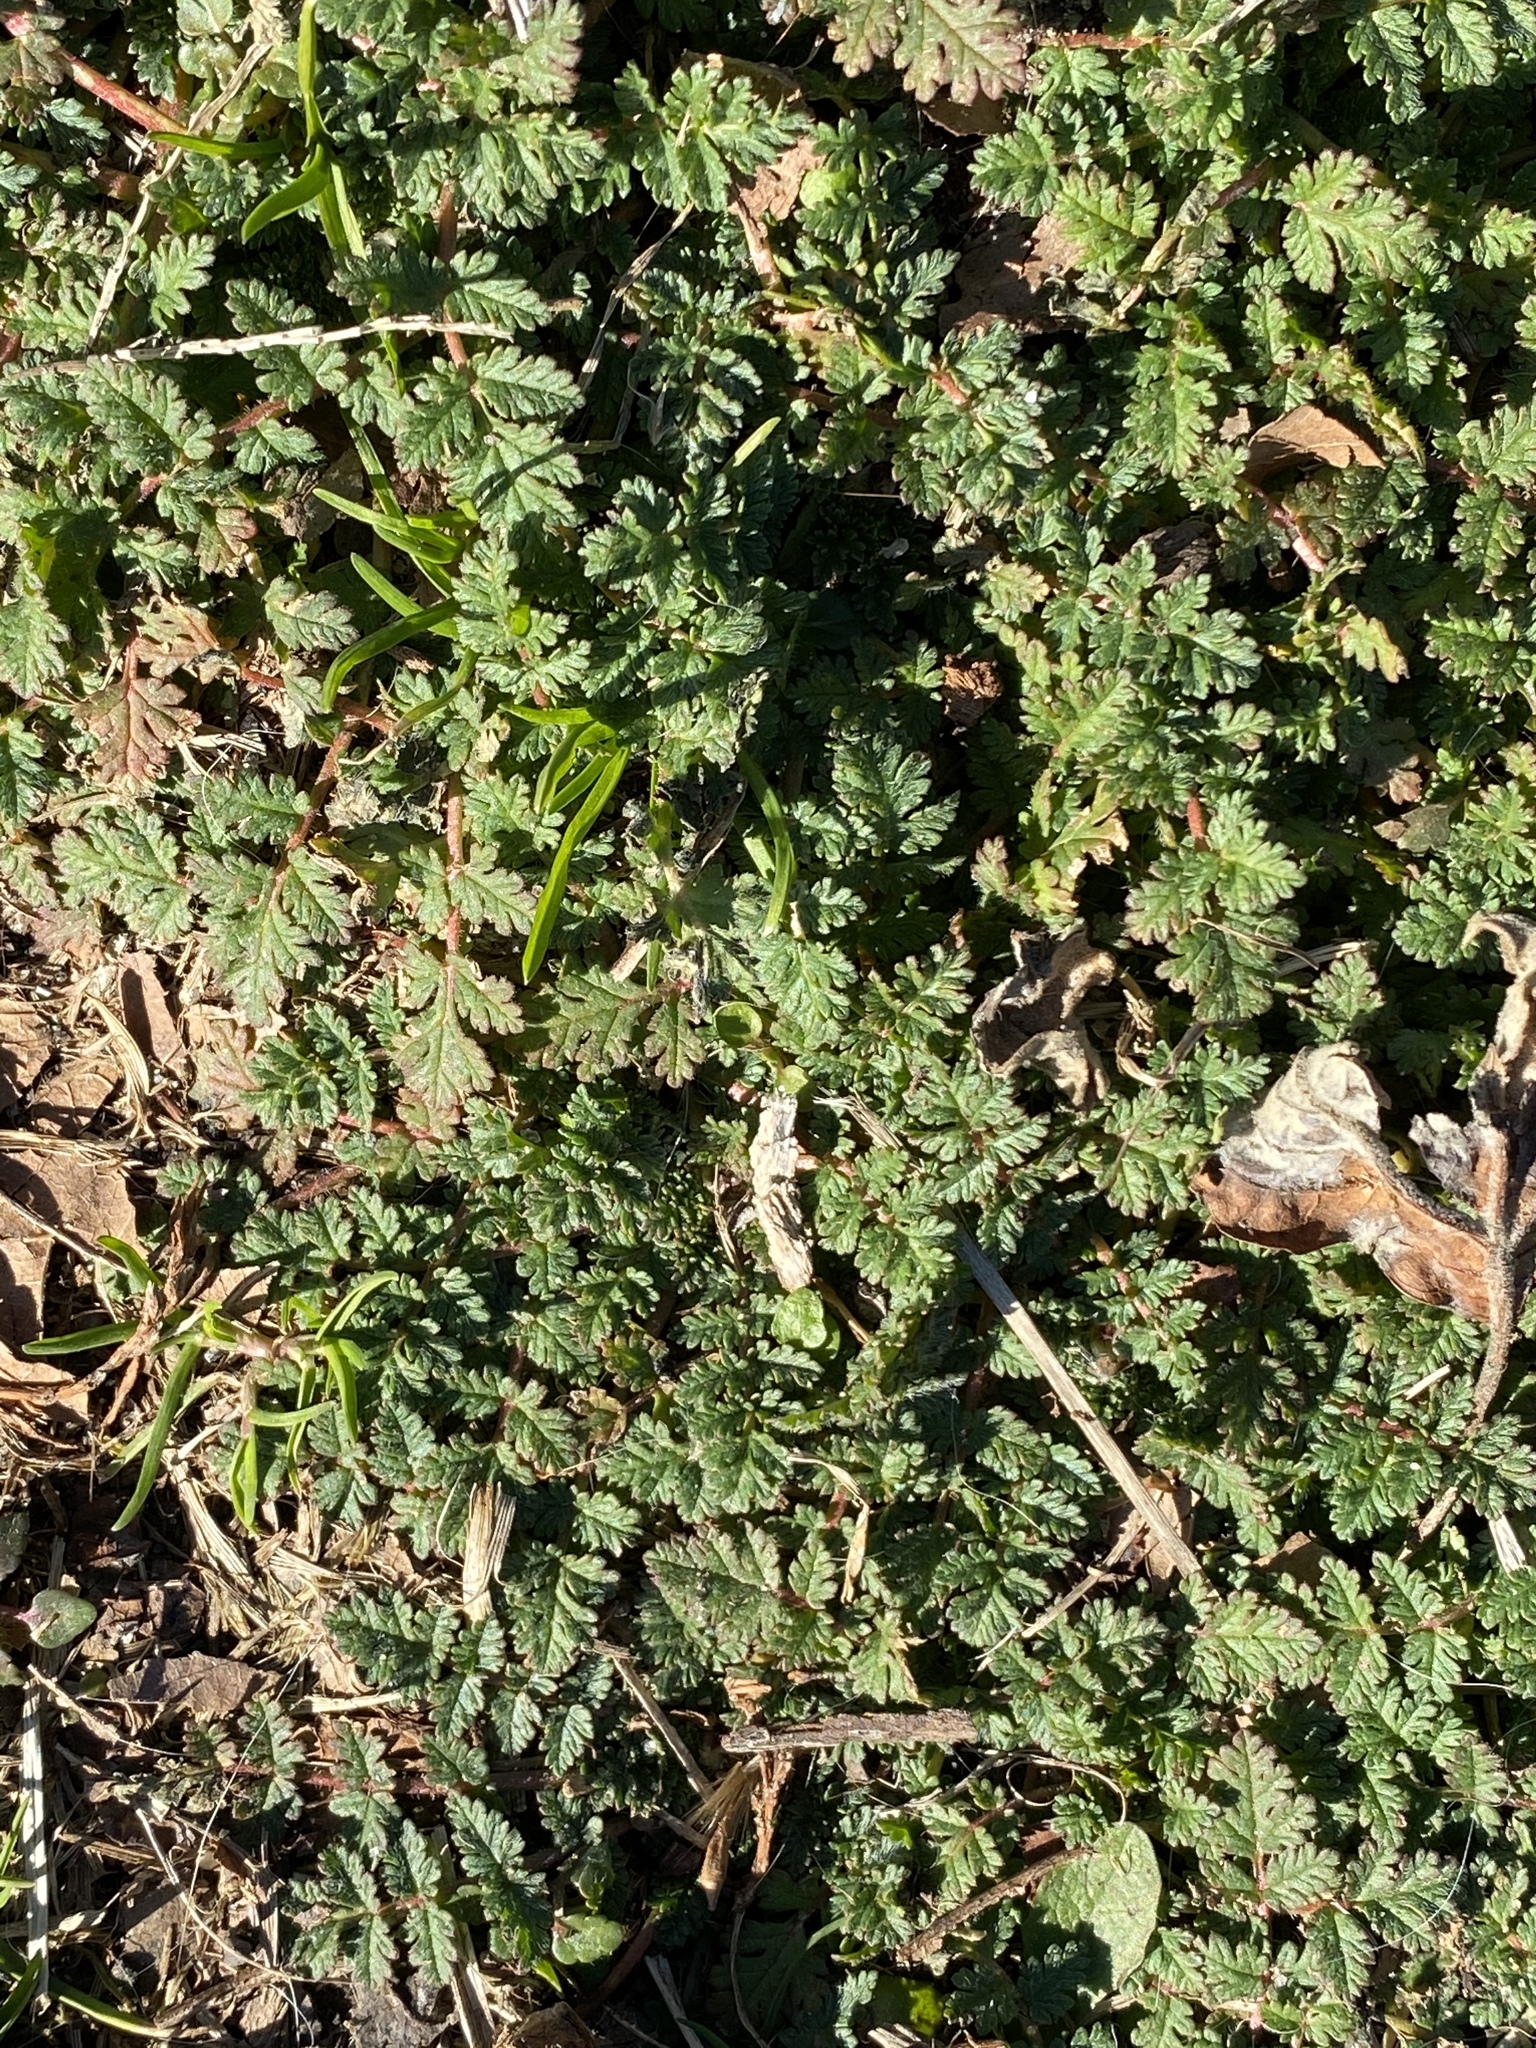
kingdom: Plantae
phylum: Tracheophyta
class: Magnoliopsida
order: Geraniales
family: Geraniaceae
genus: Erodium
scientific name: Erodium cicutarium
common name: Common stork's-bill
